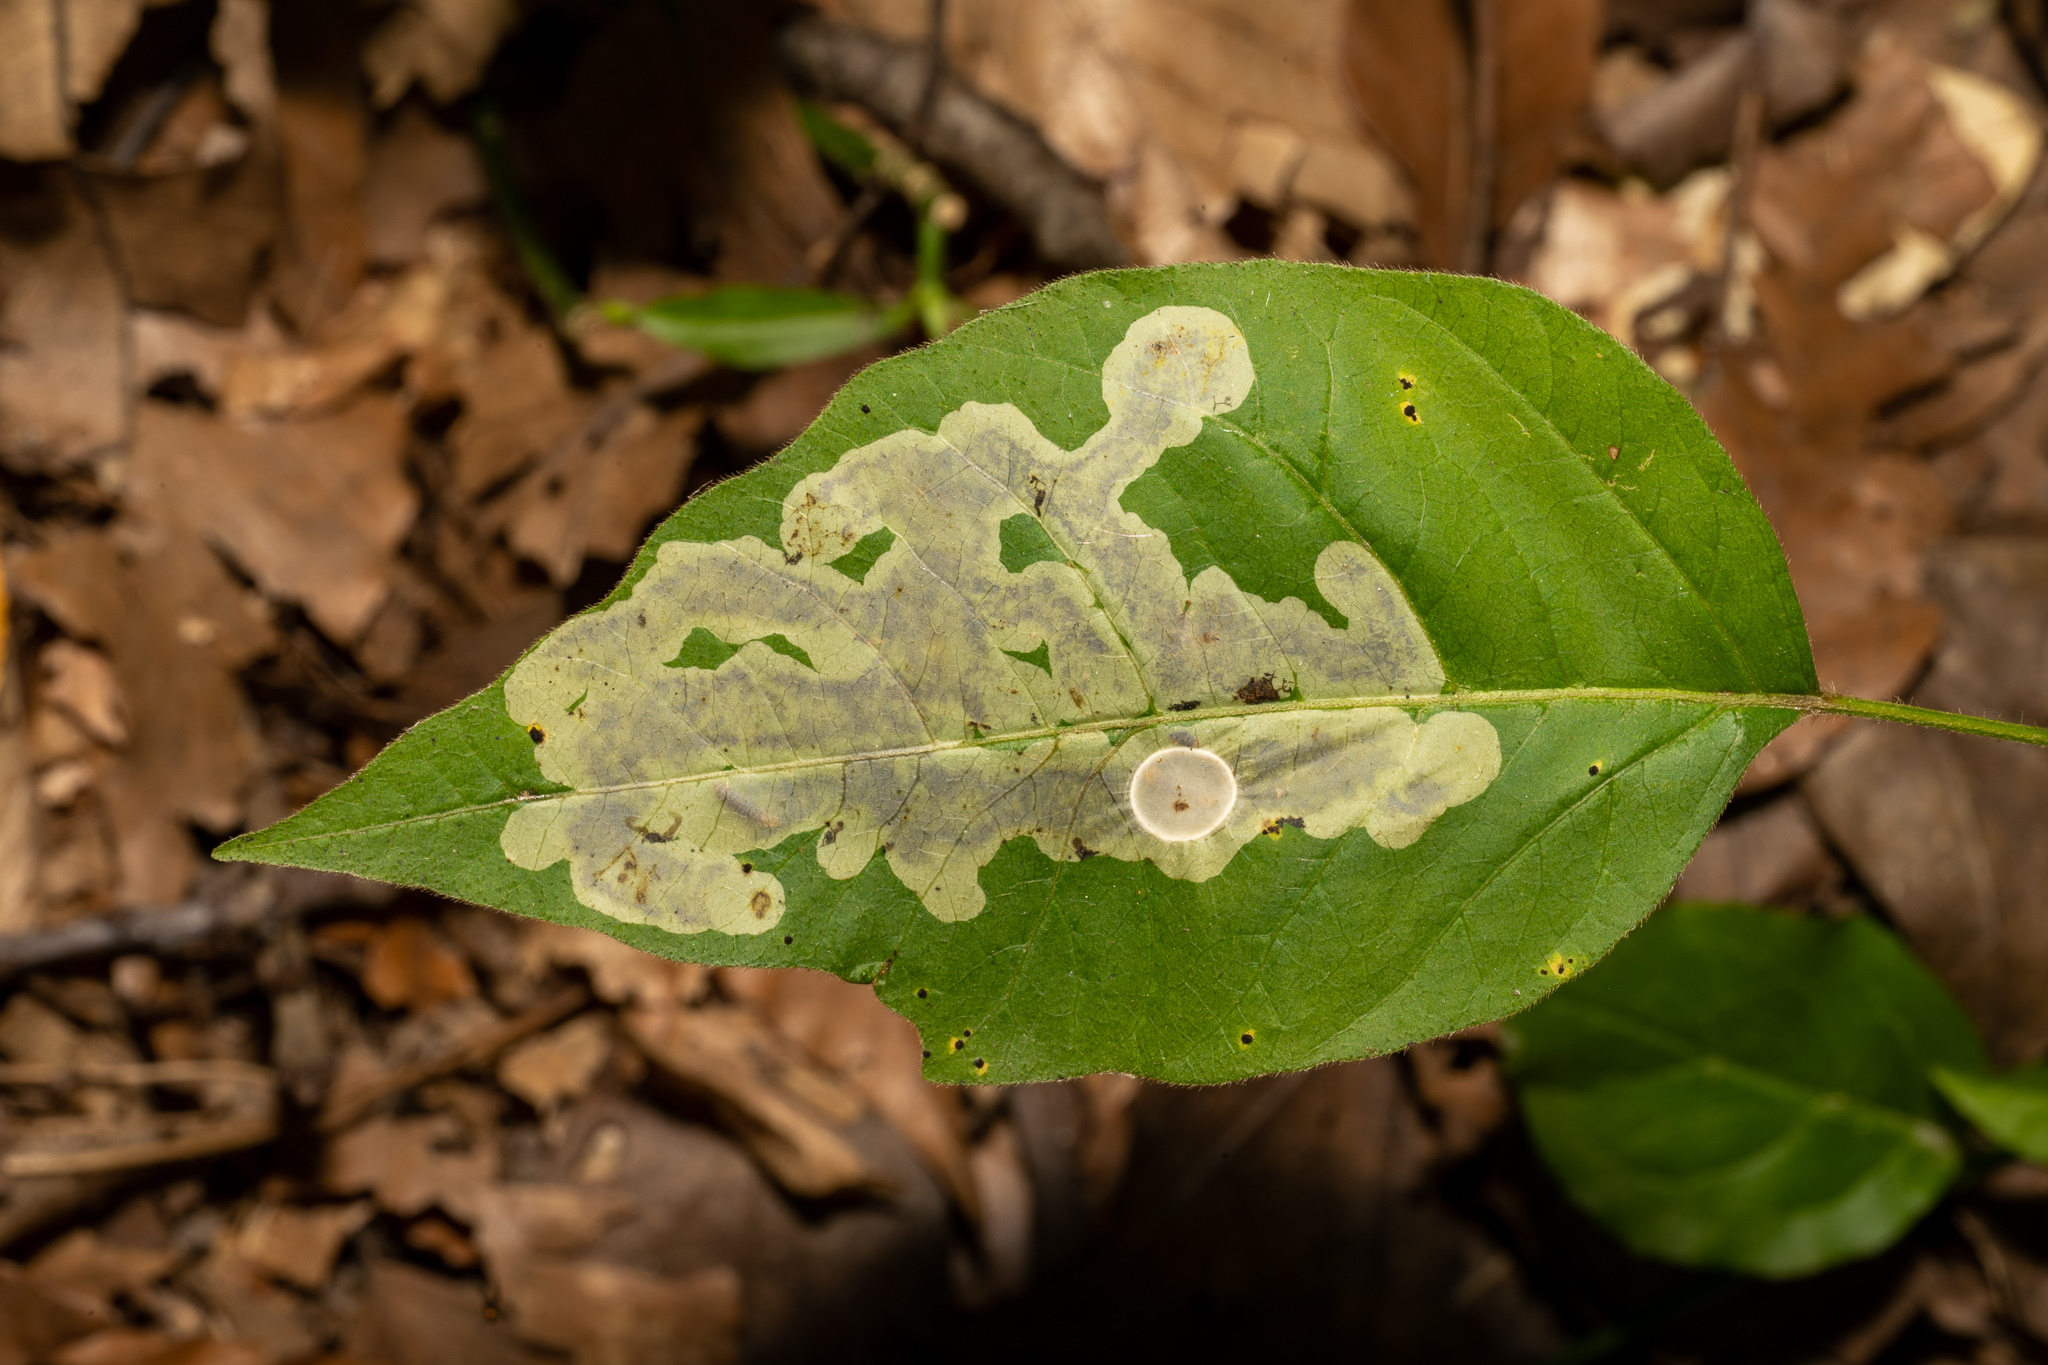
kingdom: Animalia
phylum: Arthropoda
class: Insecta
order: Lepidoptera
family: Gracillariidae
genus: Cameraria
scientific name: Cameraria guttifinitella
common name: Poison ivy leaf-miner moth
